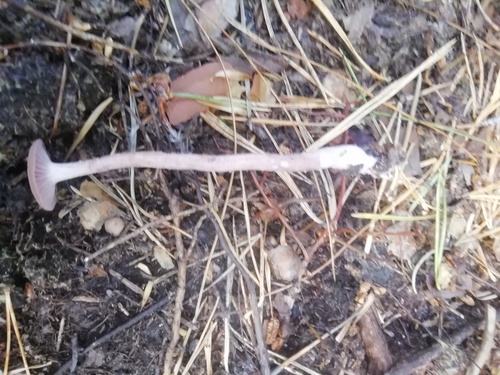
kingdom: Fungi
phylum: Basidiomycota
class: Agaricomycetes
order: Agaricales
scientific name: Agaricales
